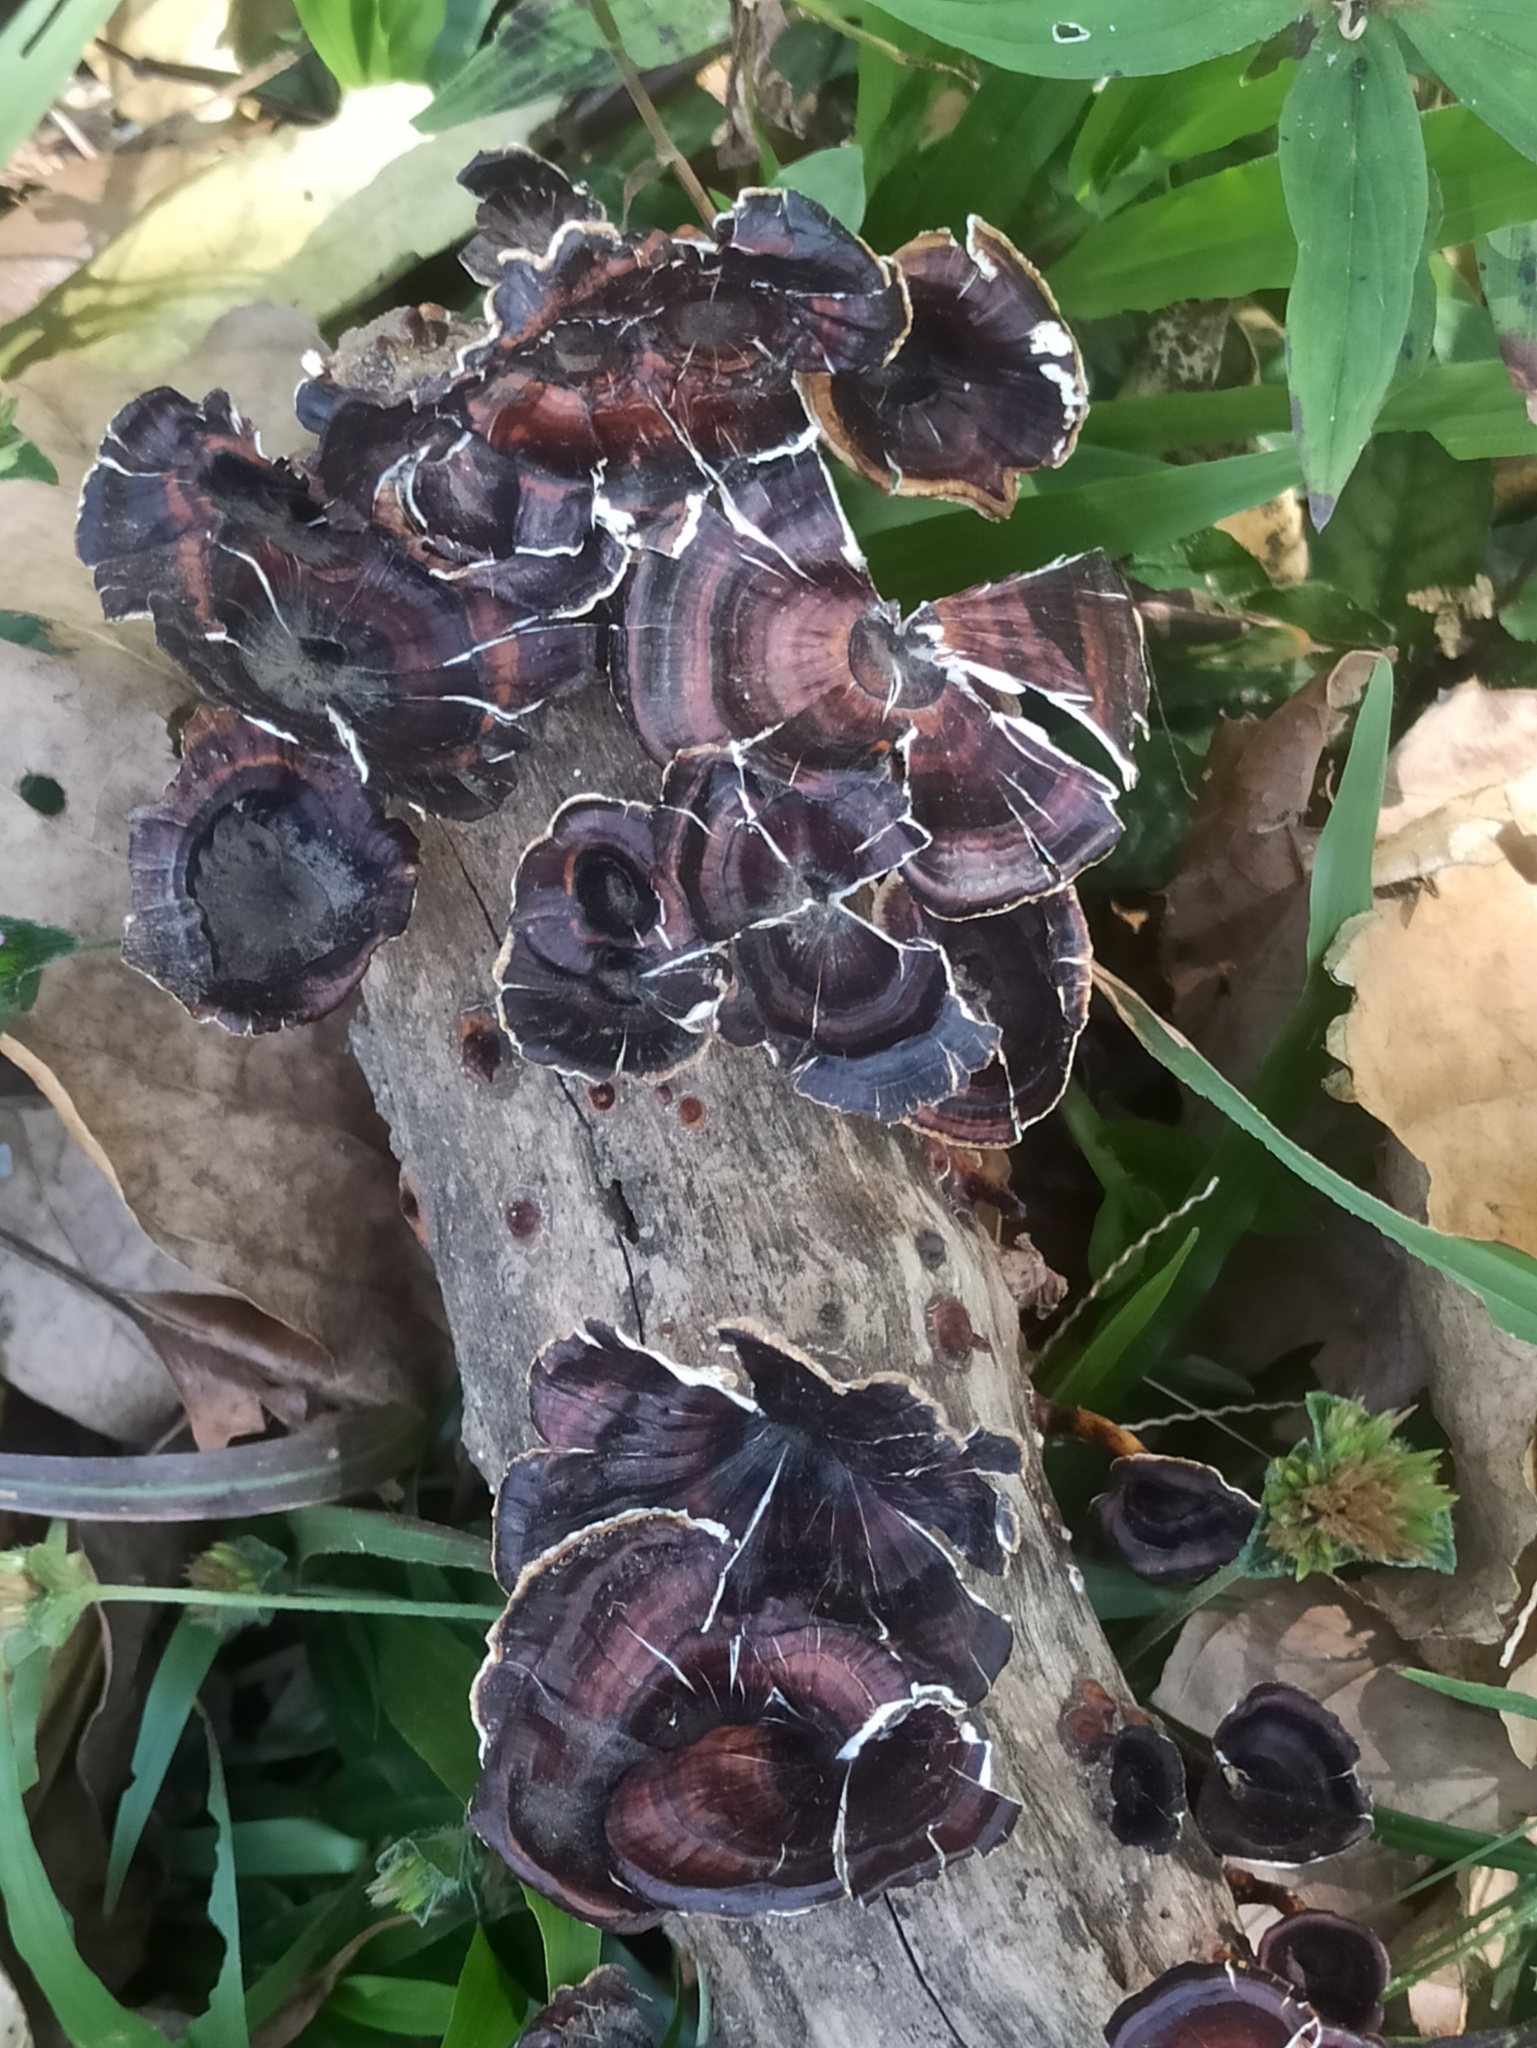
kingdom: Fungi
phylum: Basidiomycota
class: Agaricomycetes
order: Polyporales
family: Polyporaceae
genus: Microporus
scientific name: Microporus xanthopus
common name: Yellow-stemmed micropore
